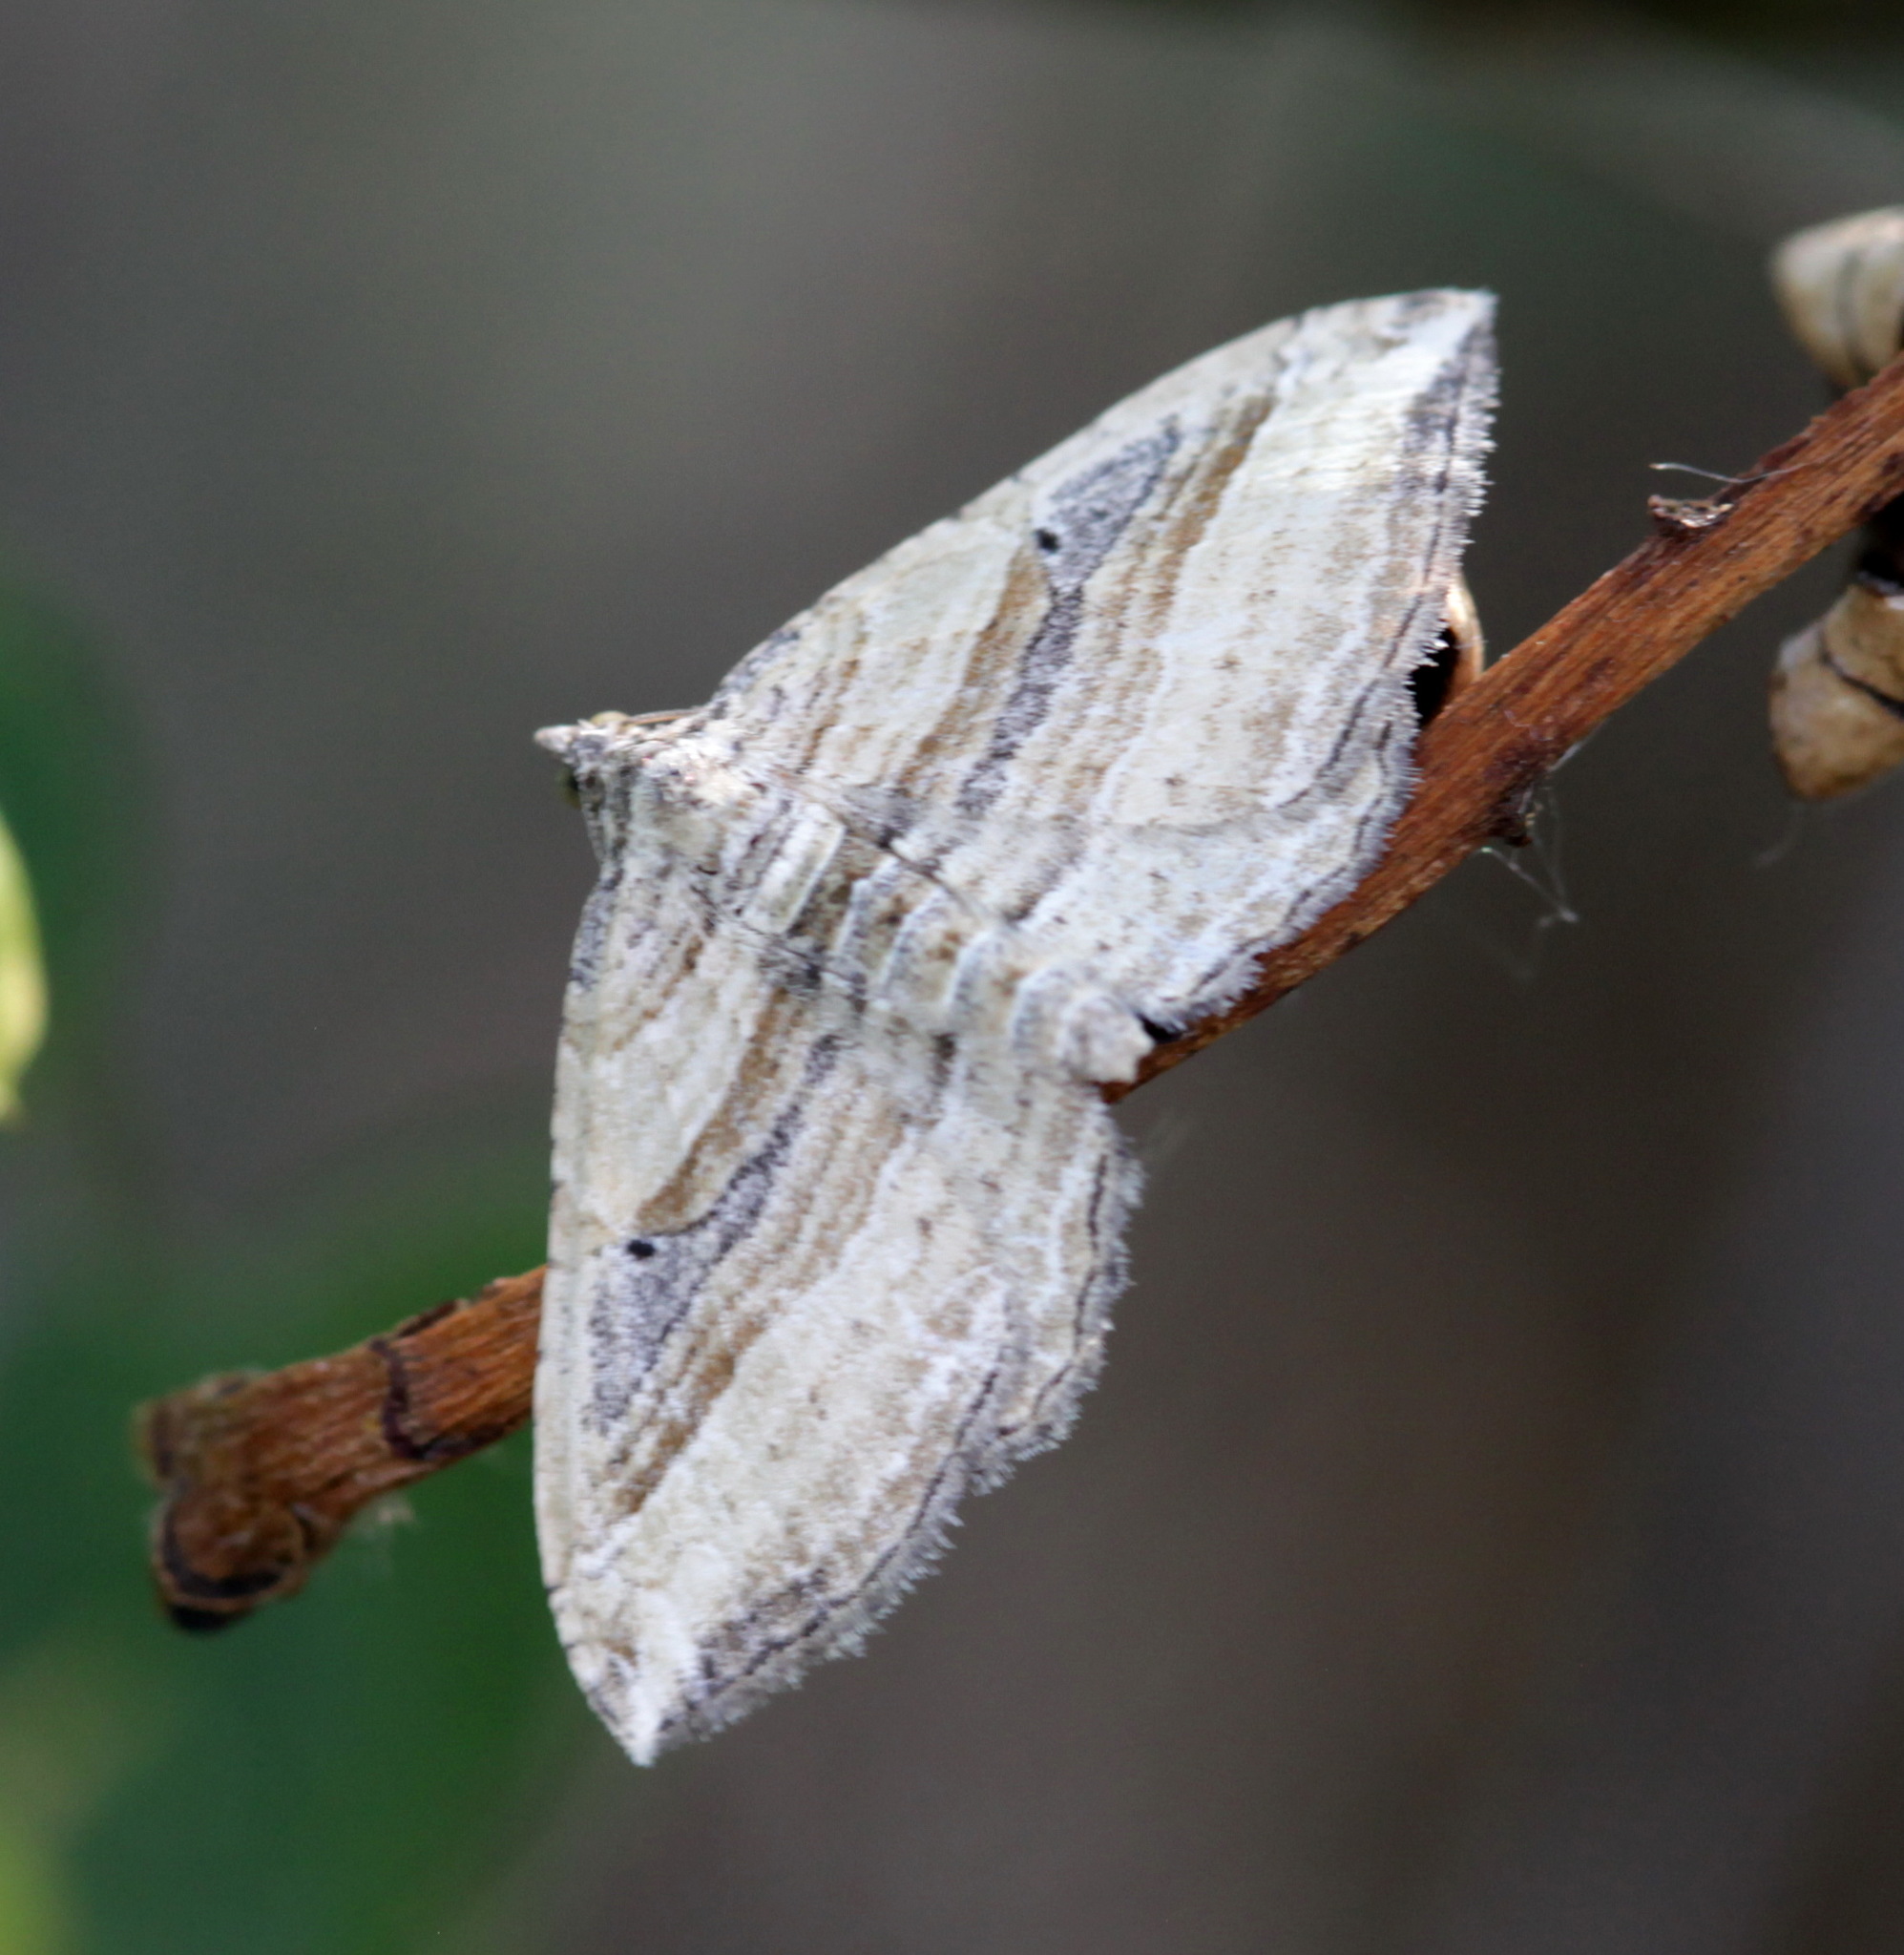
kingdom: Animalia
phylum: Arthropoda
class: Insecta
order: Lepidoptera
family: Geometridae
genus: Costaconvexa
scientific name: Costaconvexa polygrammata
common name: Many-lined
